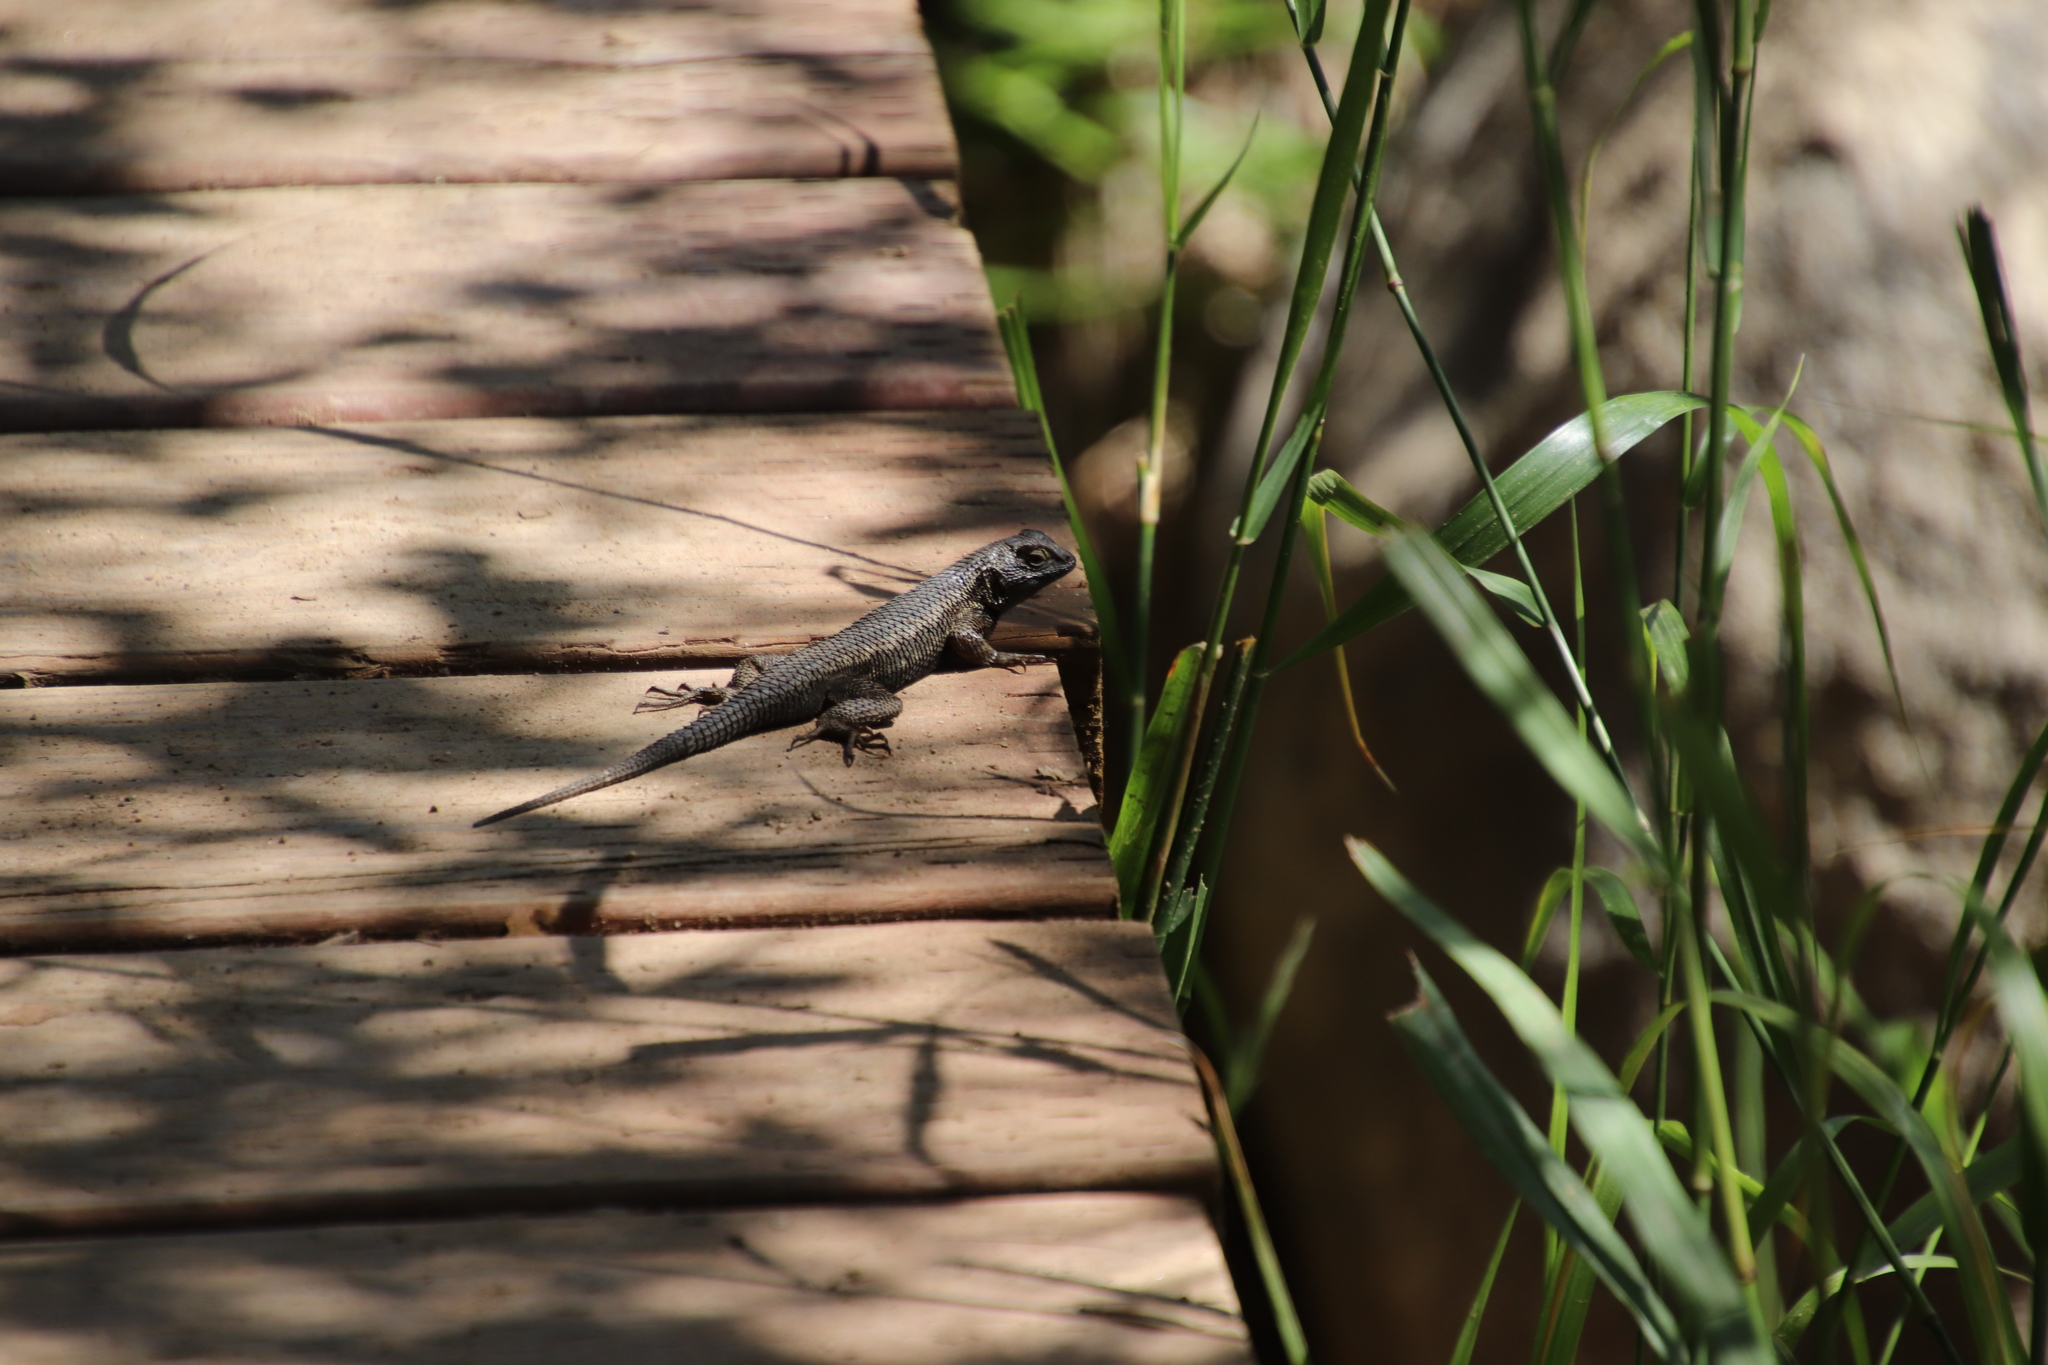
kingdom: Animalia
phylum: Chordata
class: Squamata
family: Phrynosomatidae
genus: Sceloporus
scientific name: Sceloporus occidentalis
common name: Western fence lizard
